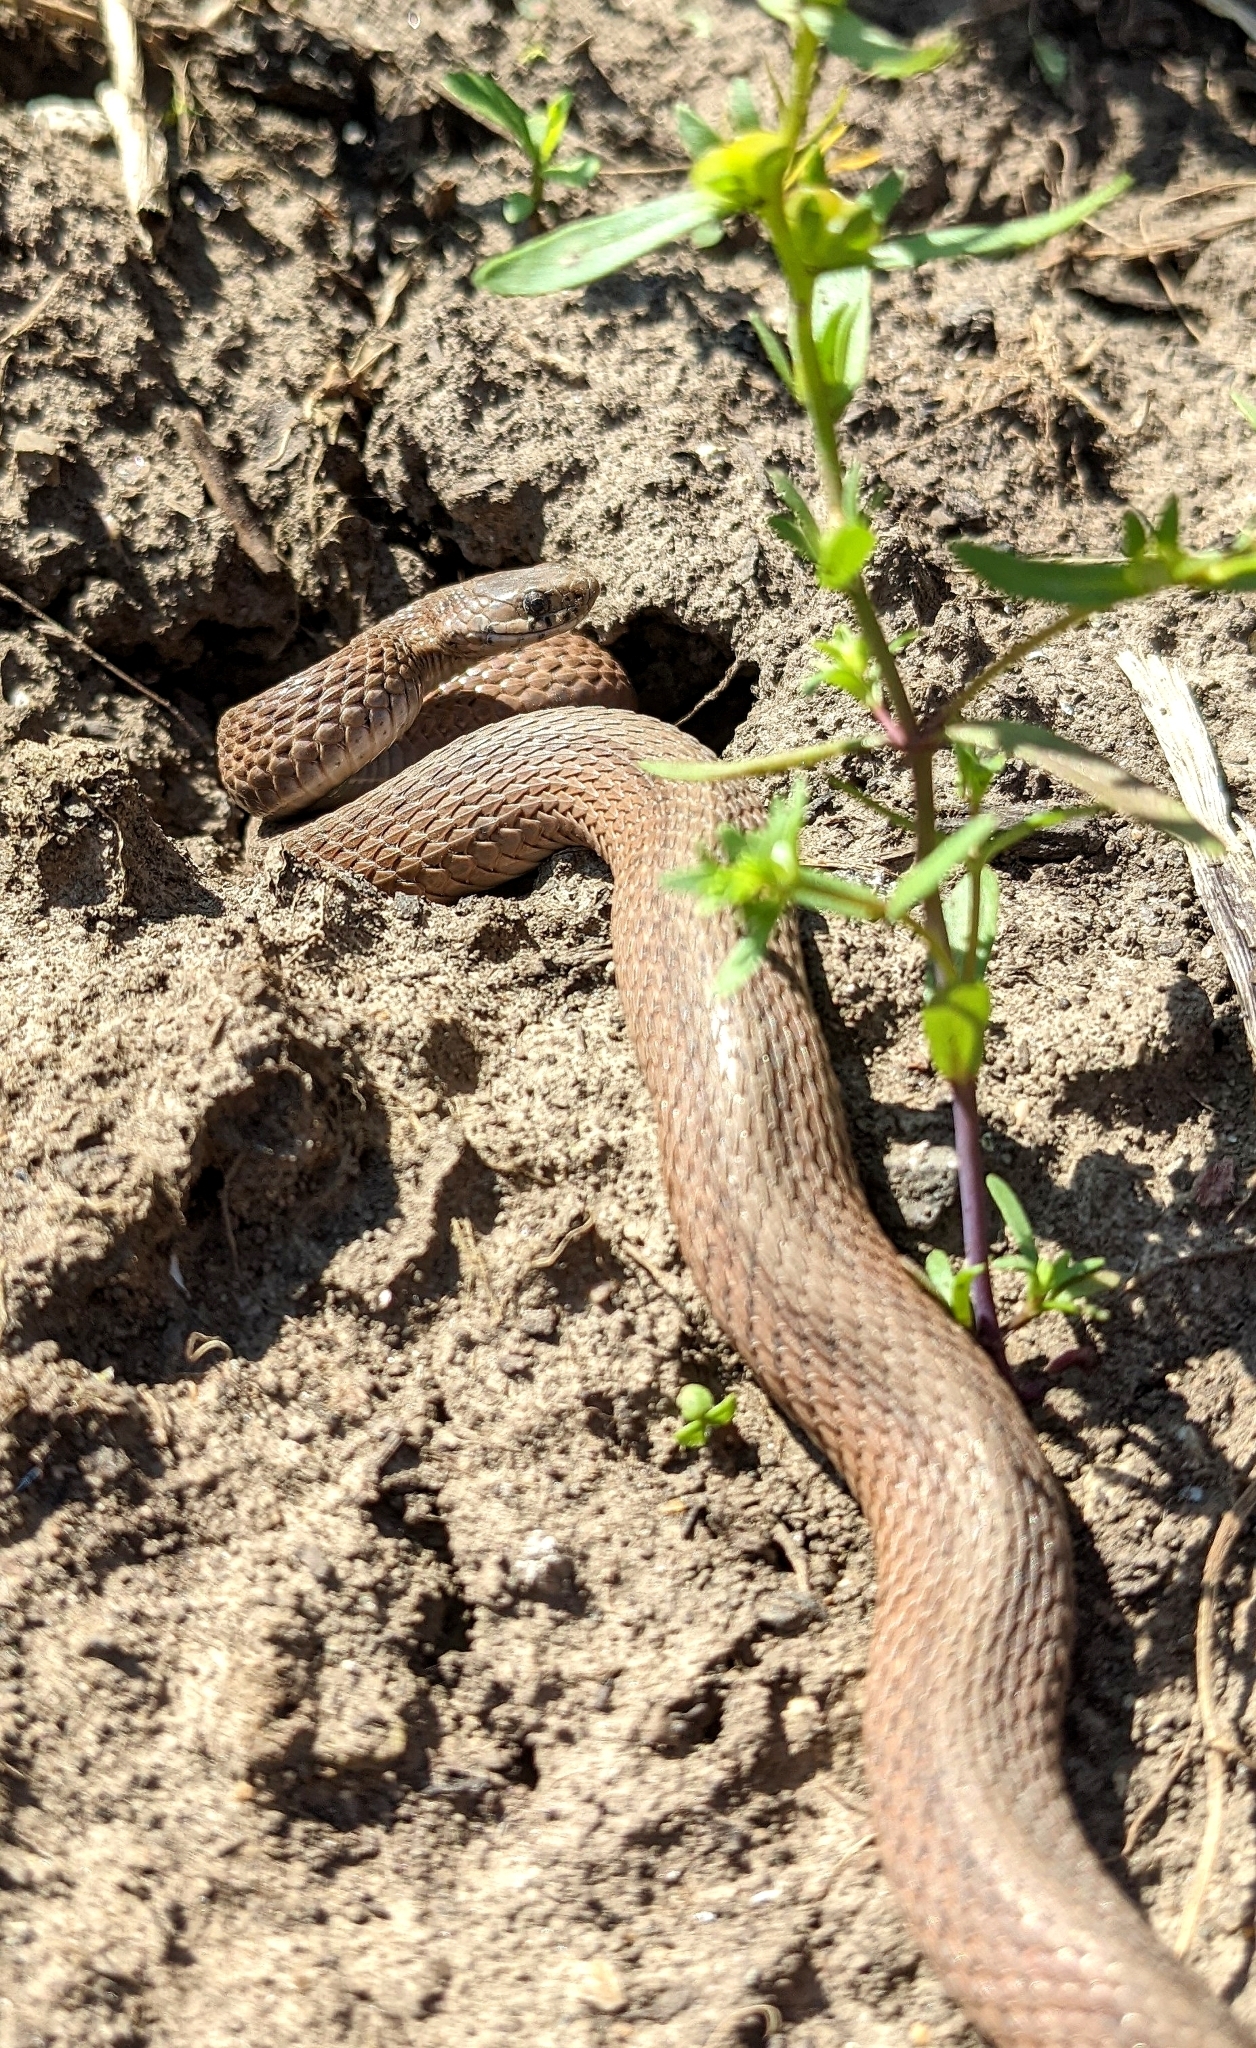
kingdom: Animalia
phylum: Chordata
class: Squamata
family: Colubridae
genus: Storeria
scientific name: Storeria dekayi
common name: (dekay’s) brown snake
